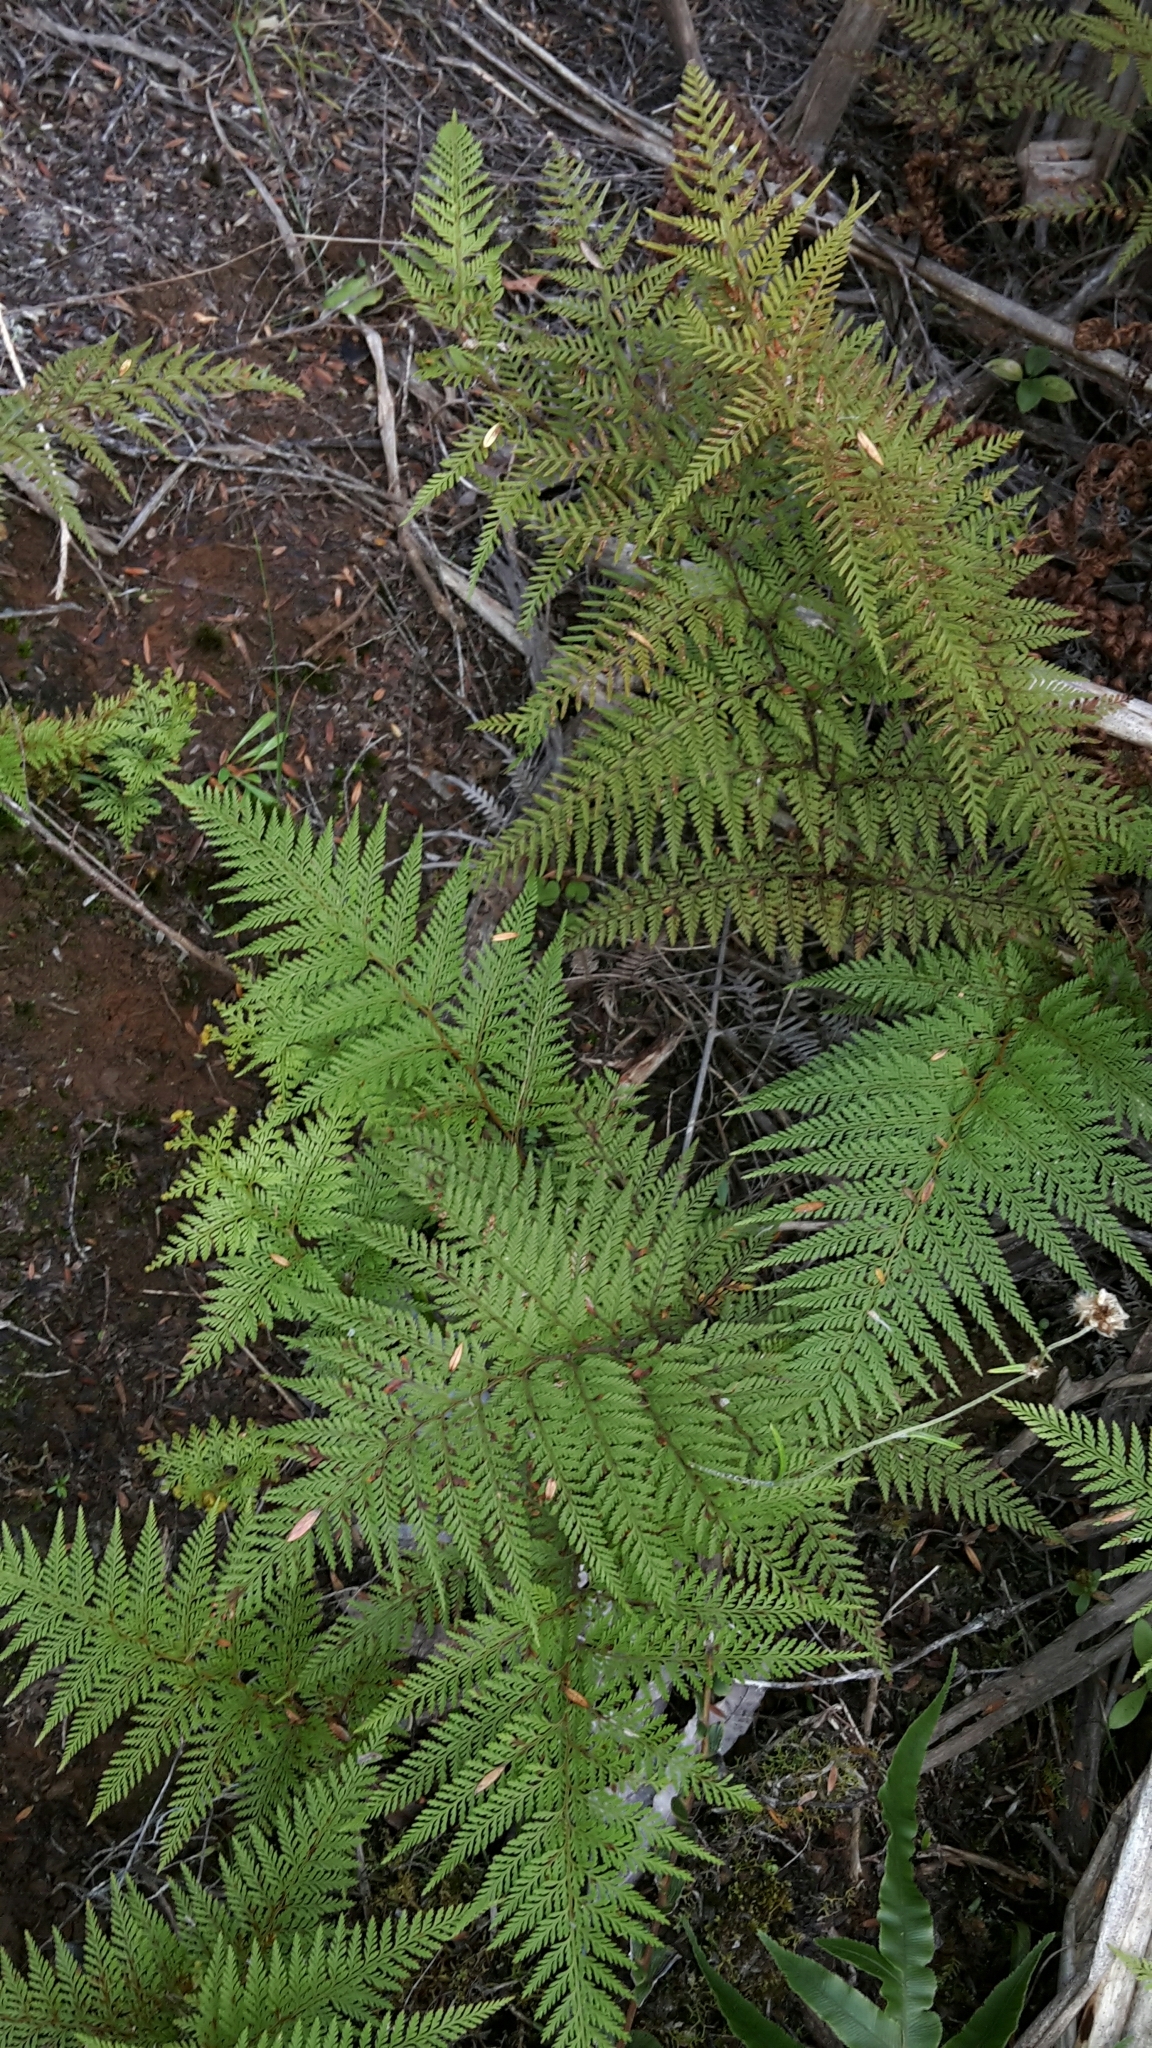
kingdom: Plantae
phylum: Tracheophyta
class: Polypodiopsida
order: Polypodiales
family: Dennstaedtiaceae
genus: Paesia
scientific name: Paesia scaberula
